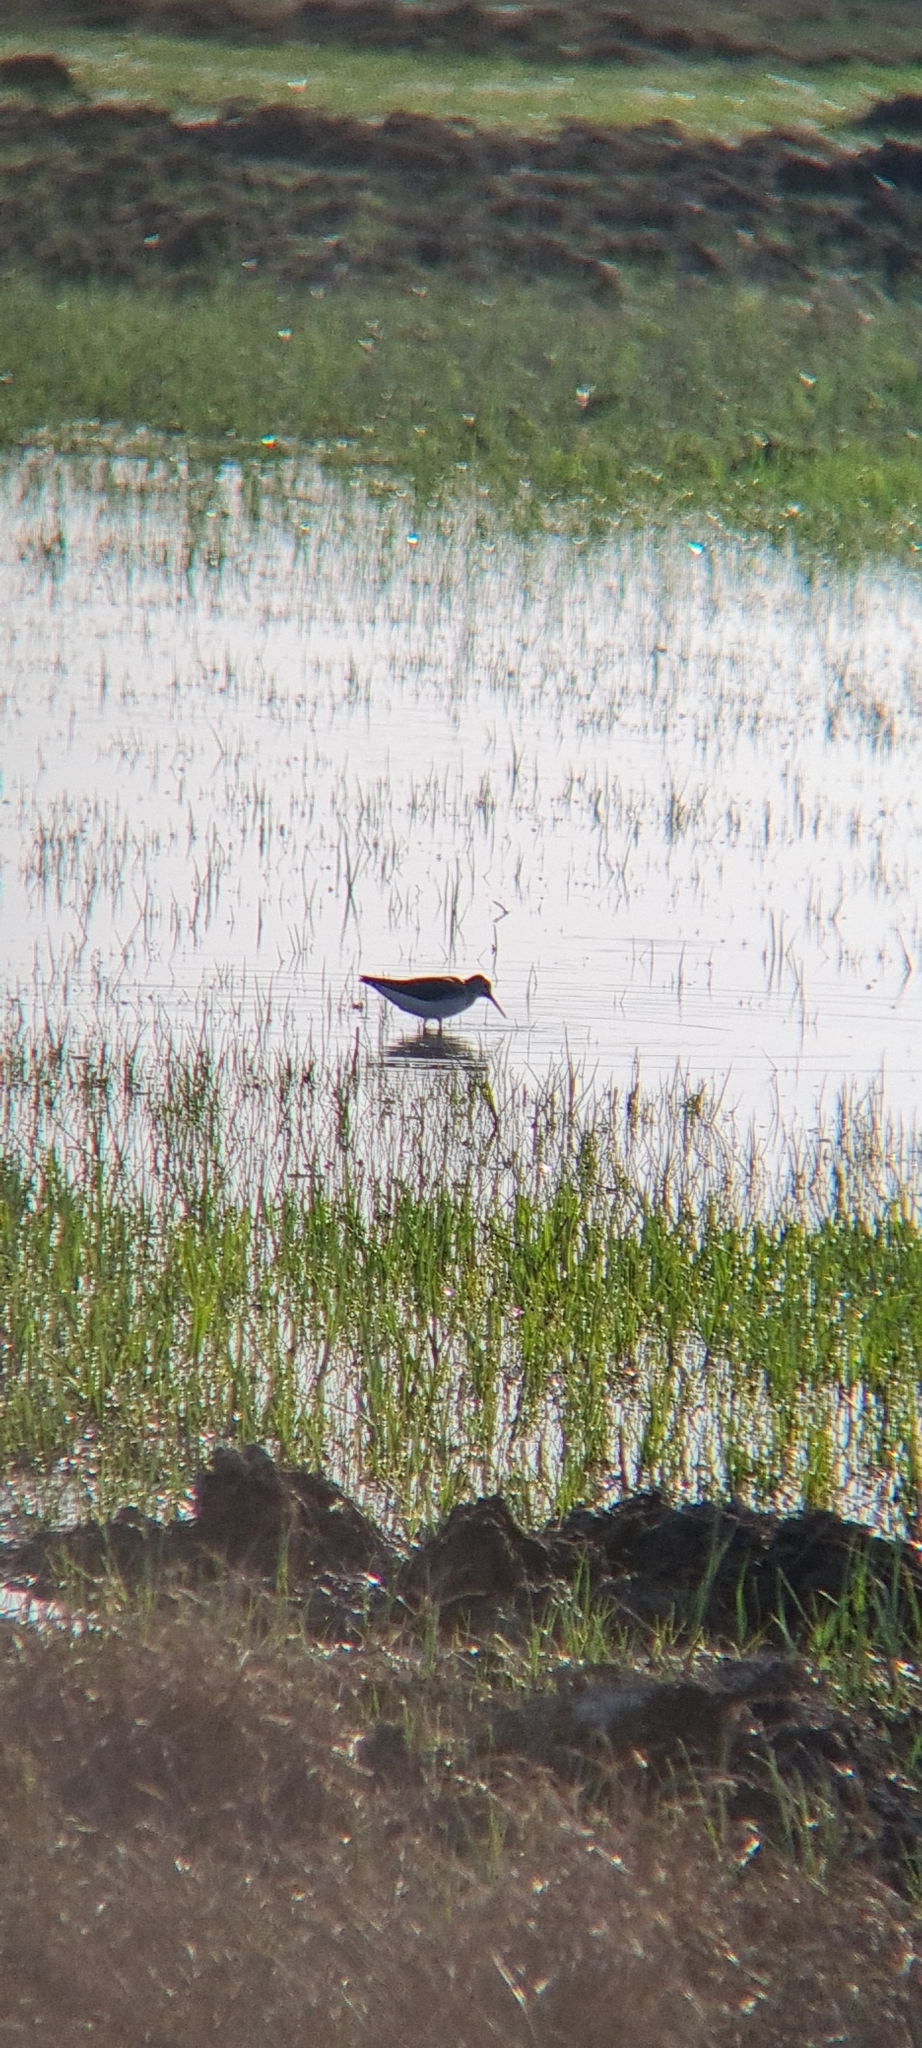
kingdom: Animalia
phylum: Chordata
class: Aves
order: Charadriiformes
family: Scolopacidae
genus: Tringa
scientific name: Tringa ochropus
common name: Green sandpiper
